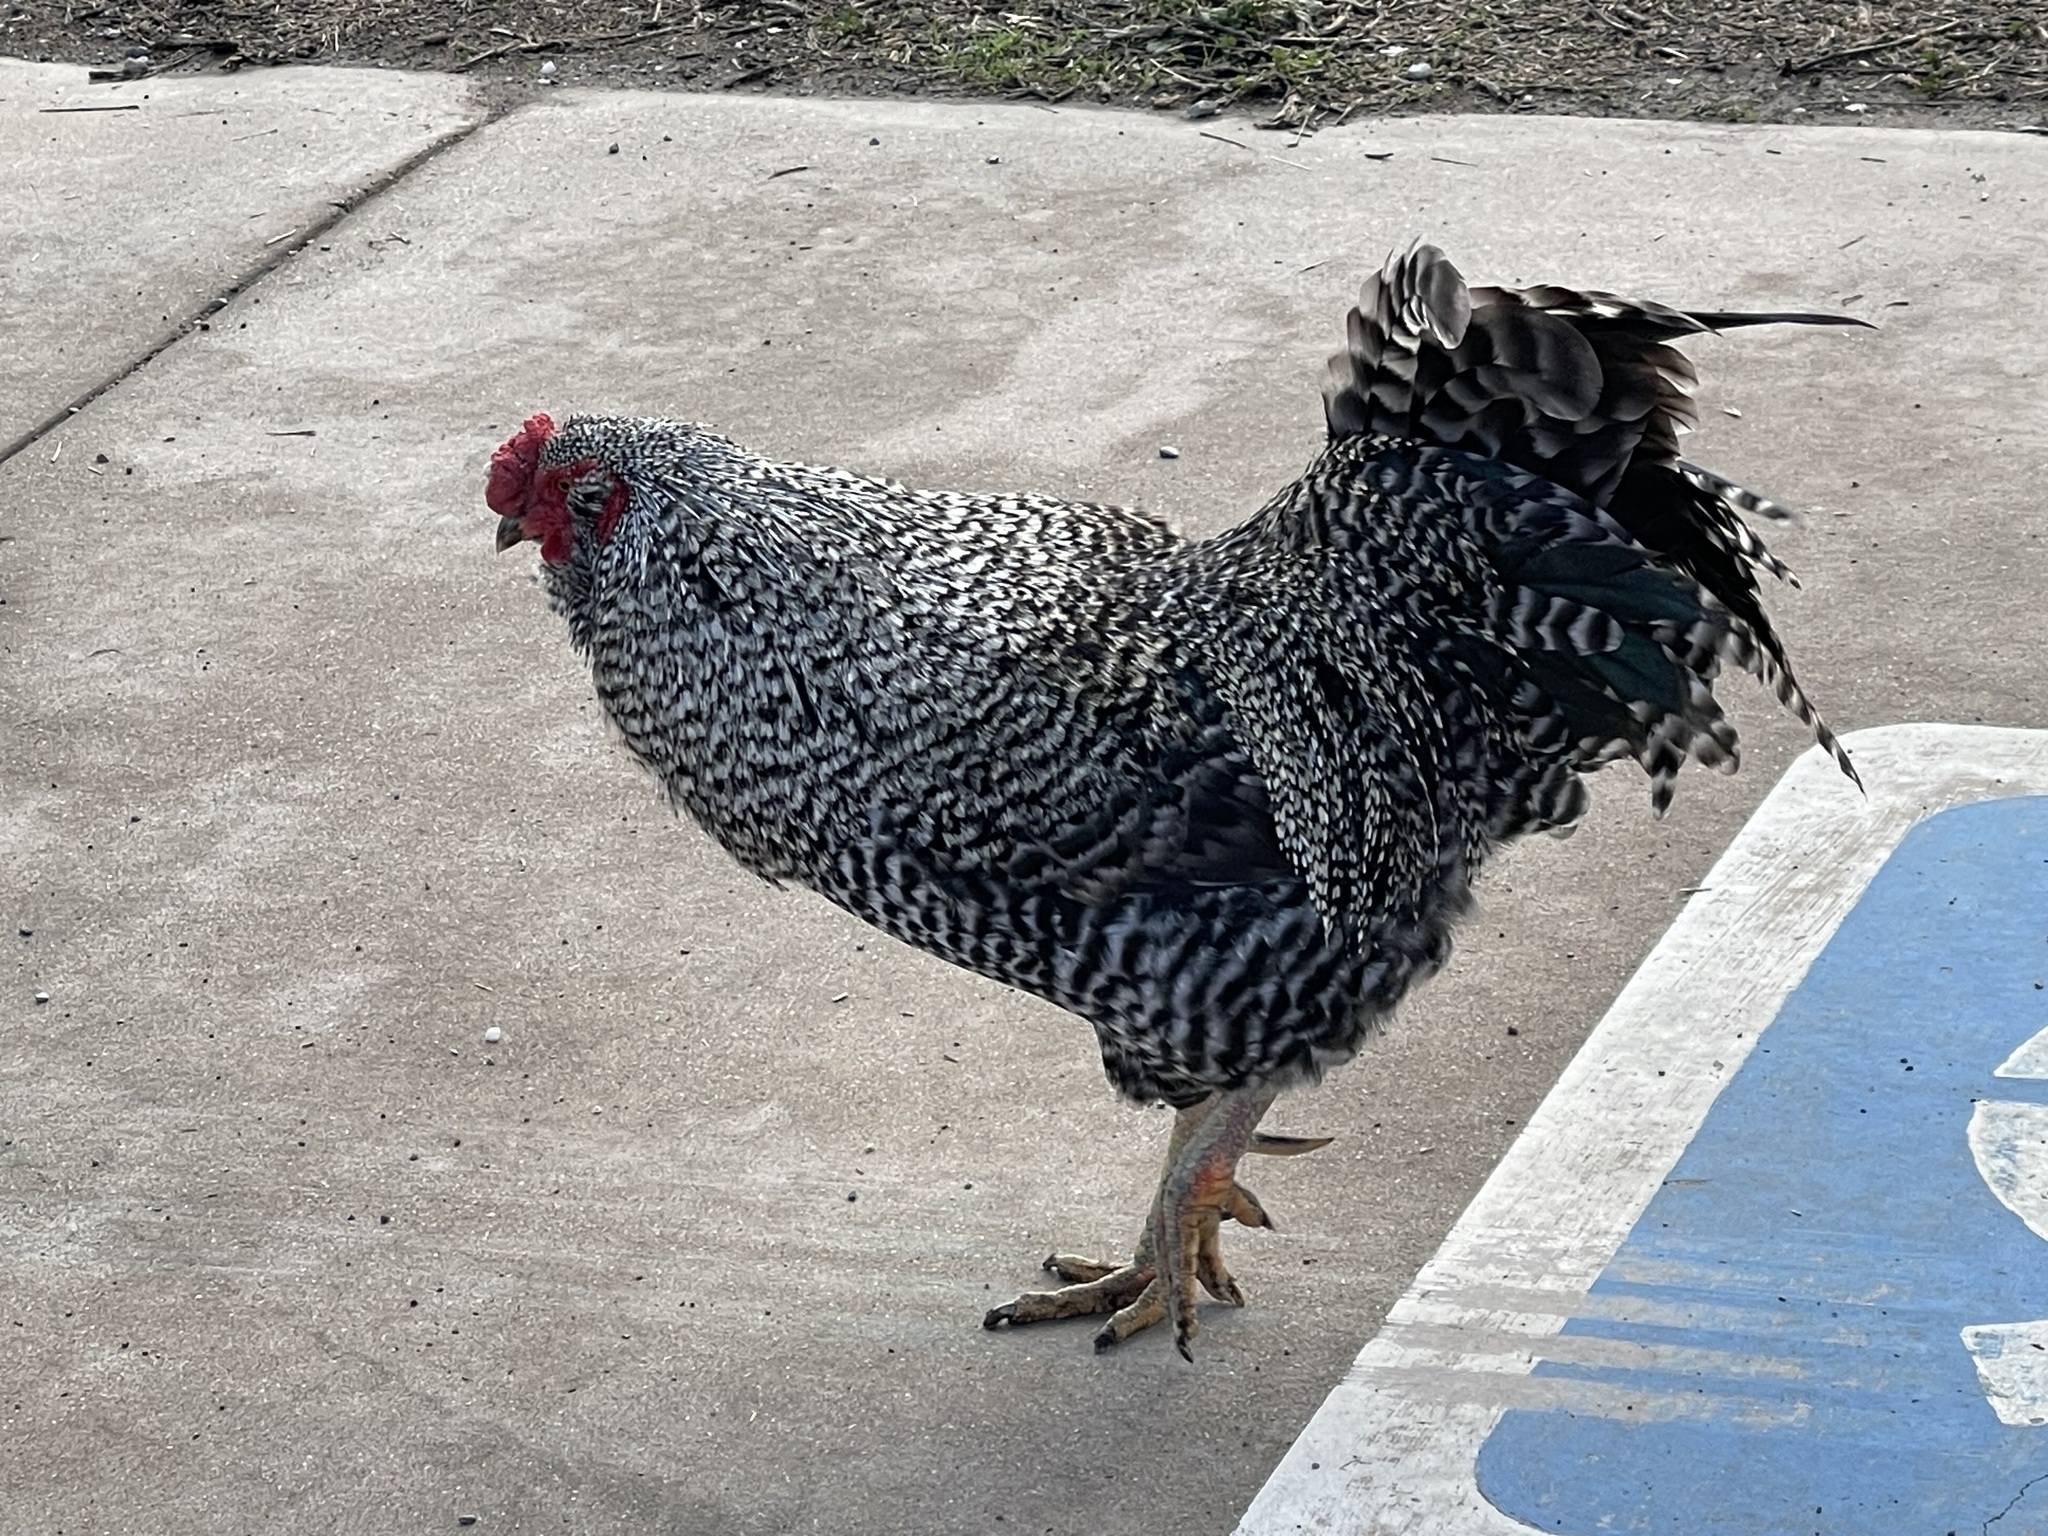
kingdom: Animalia
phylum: Chordata
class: Aves
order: Galliformes
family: Phasianidae
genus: Gallus
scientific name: Gallus gallus
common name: Red junglefowl
